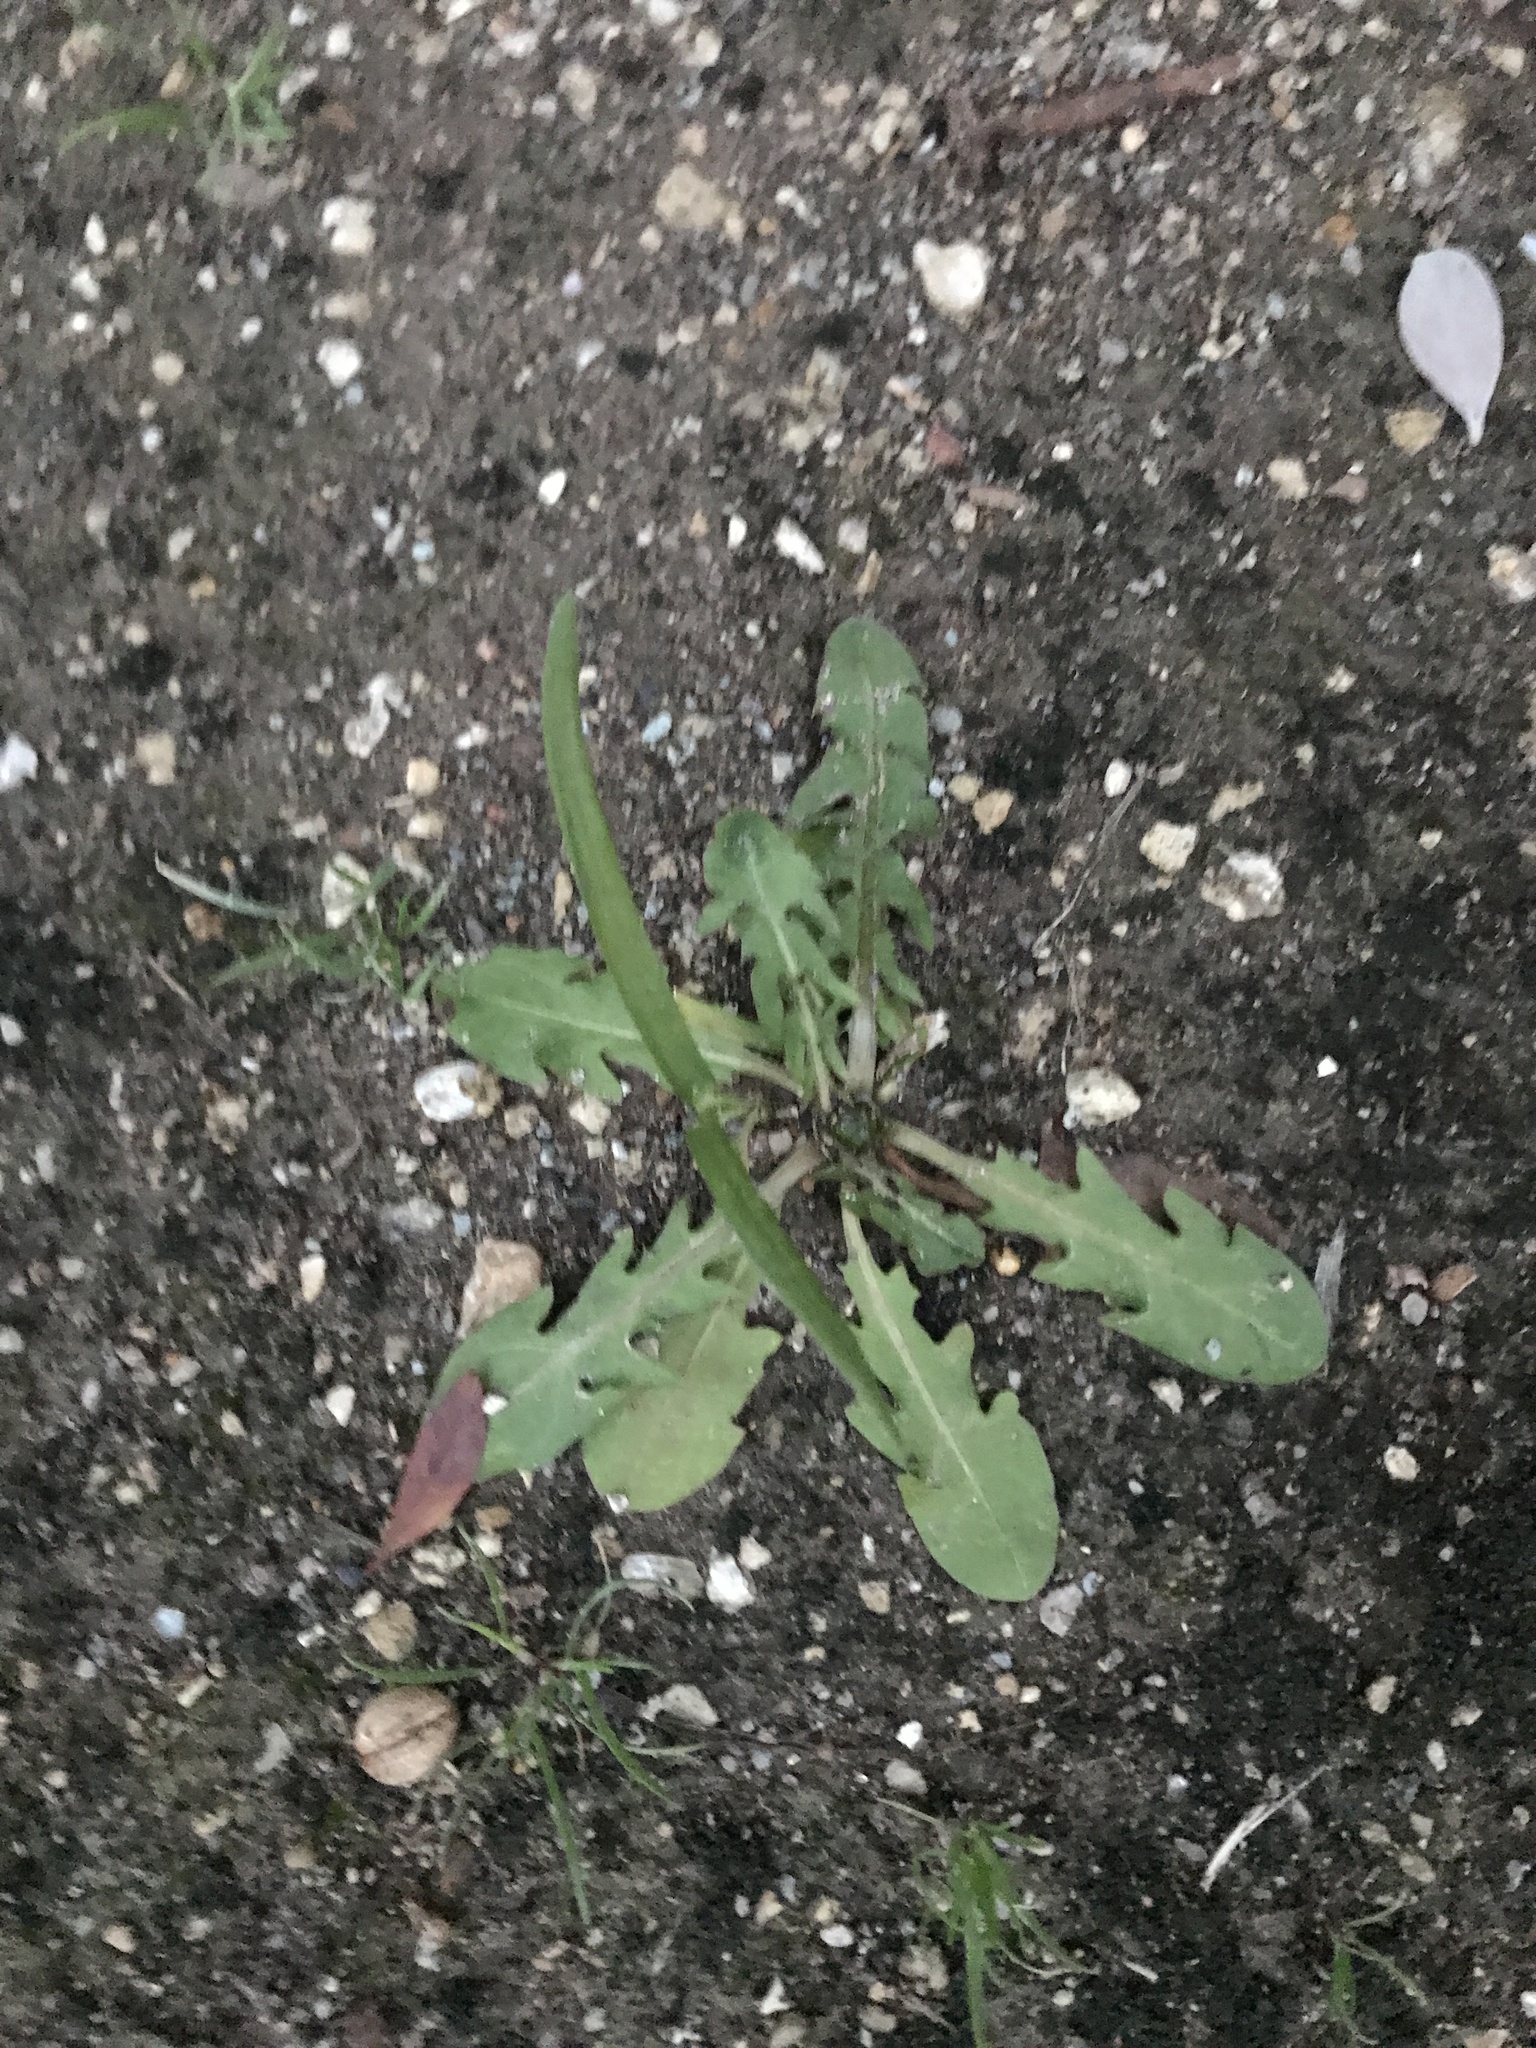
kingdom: Plantae
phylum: Tracheophyta
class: Magnoliopsida
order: Asterales
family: Asteraceae
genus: Taraxacum
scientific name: Taraxacum officinale
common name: Common dandelion
